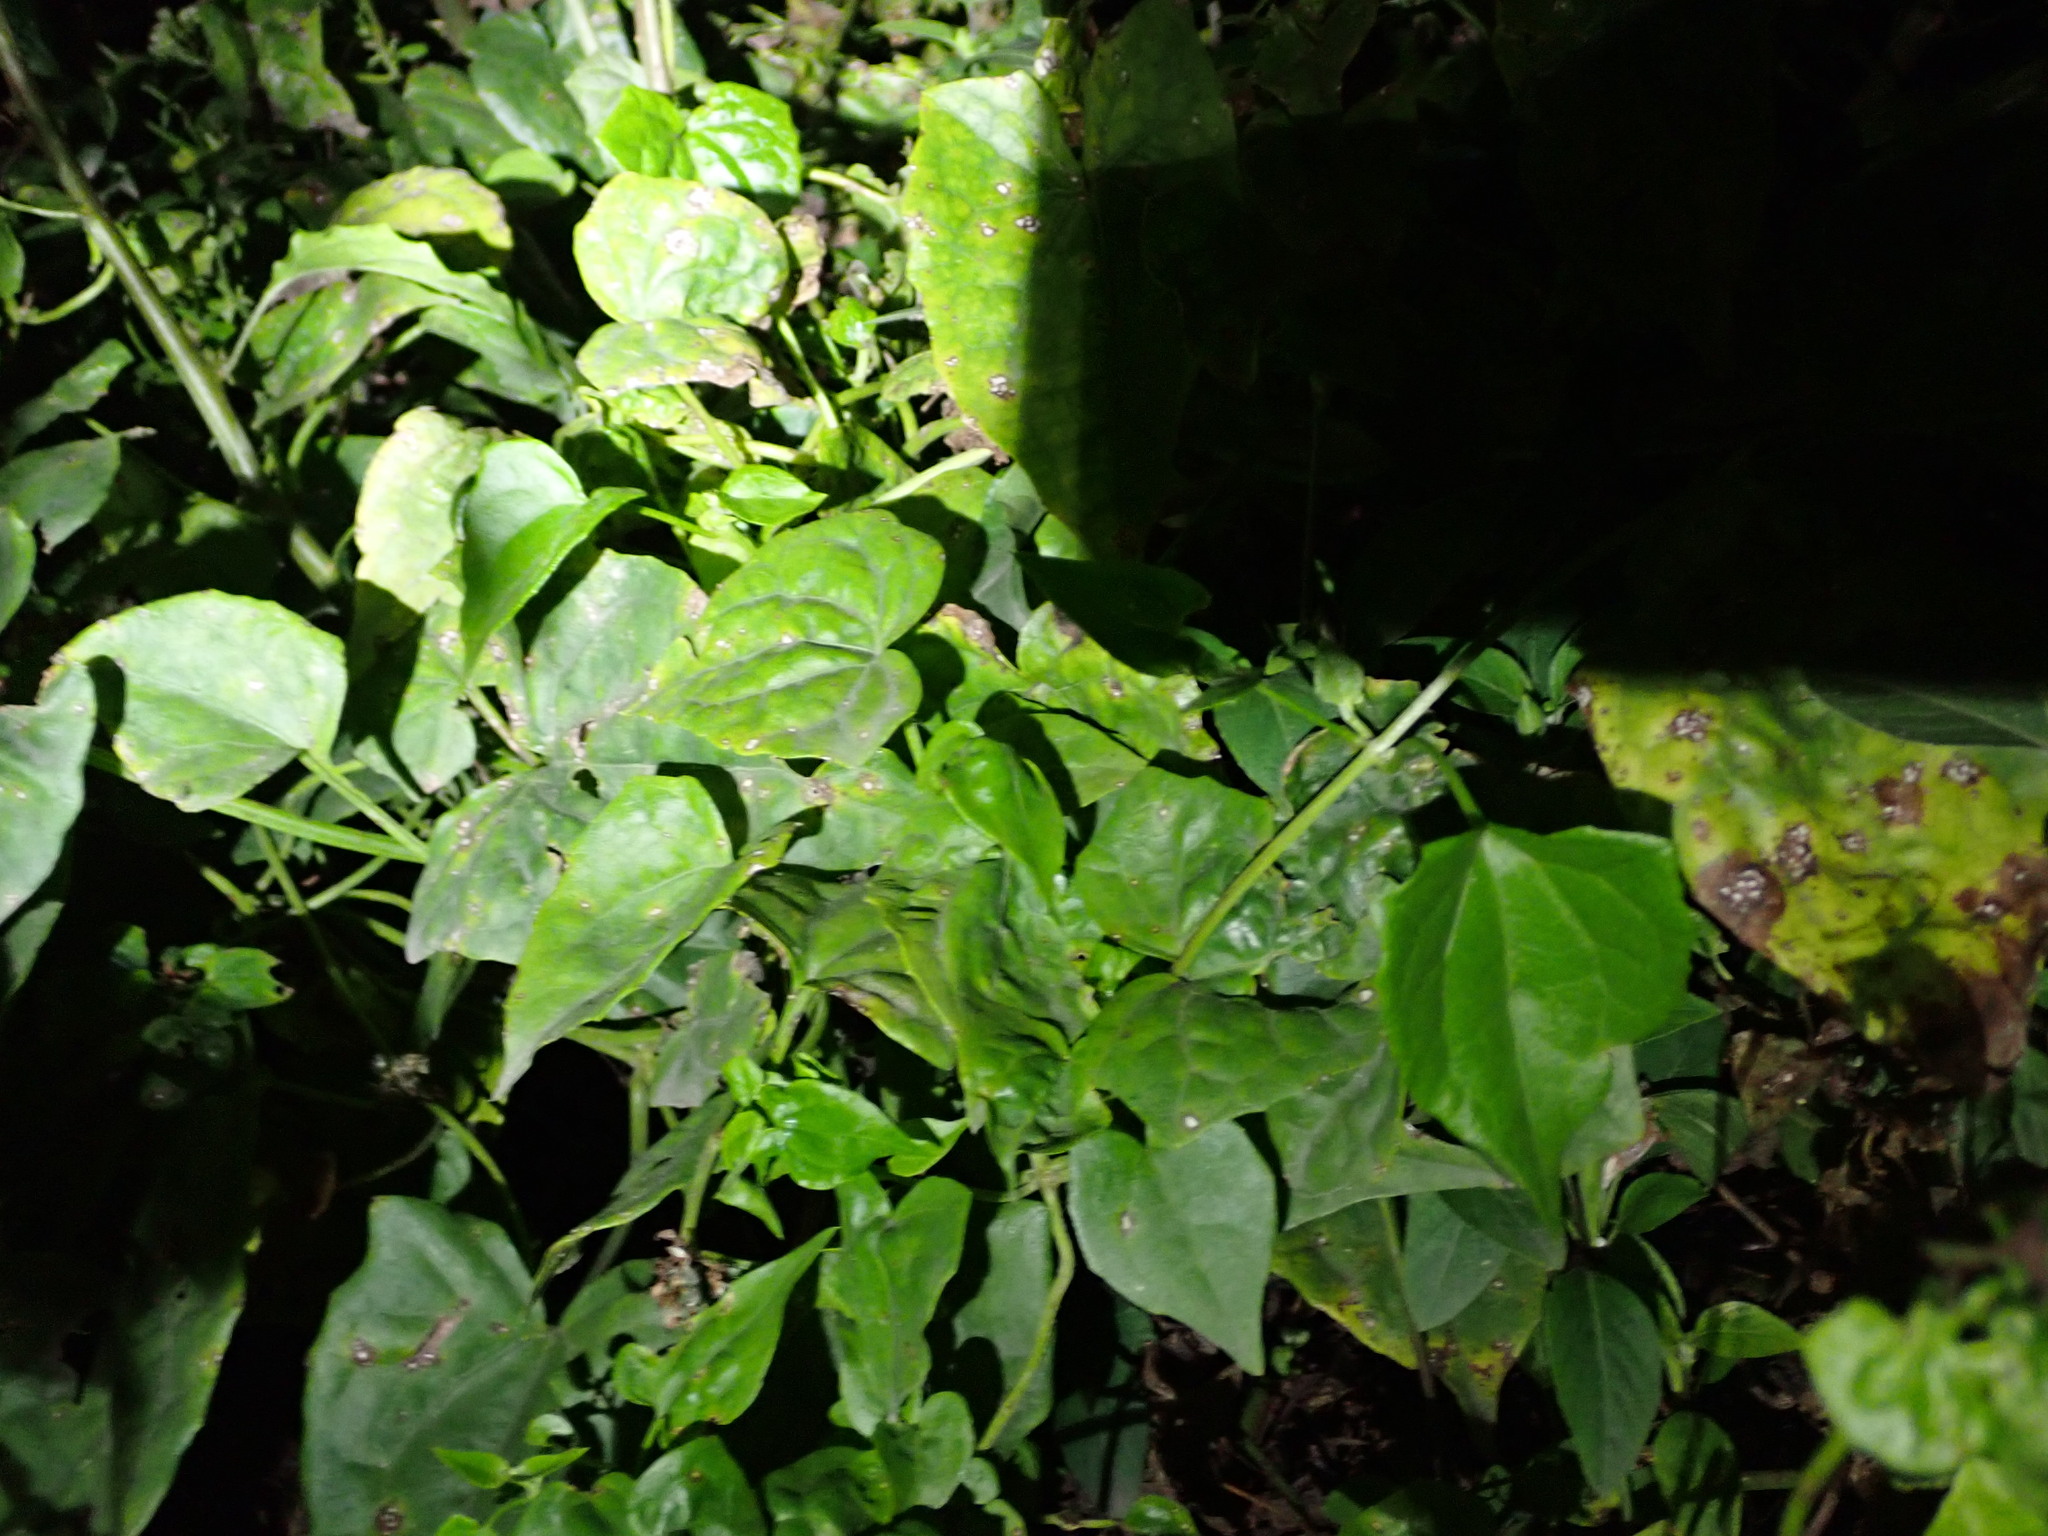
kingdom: Plantae
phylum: Tracheophyta
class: Magnoliopsida
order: Asterales
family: Asteraceae
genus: Mikania
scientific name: Mikania micrantha
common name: Mile-a-minute
